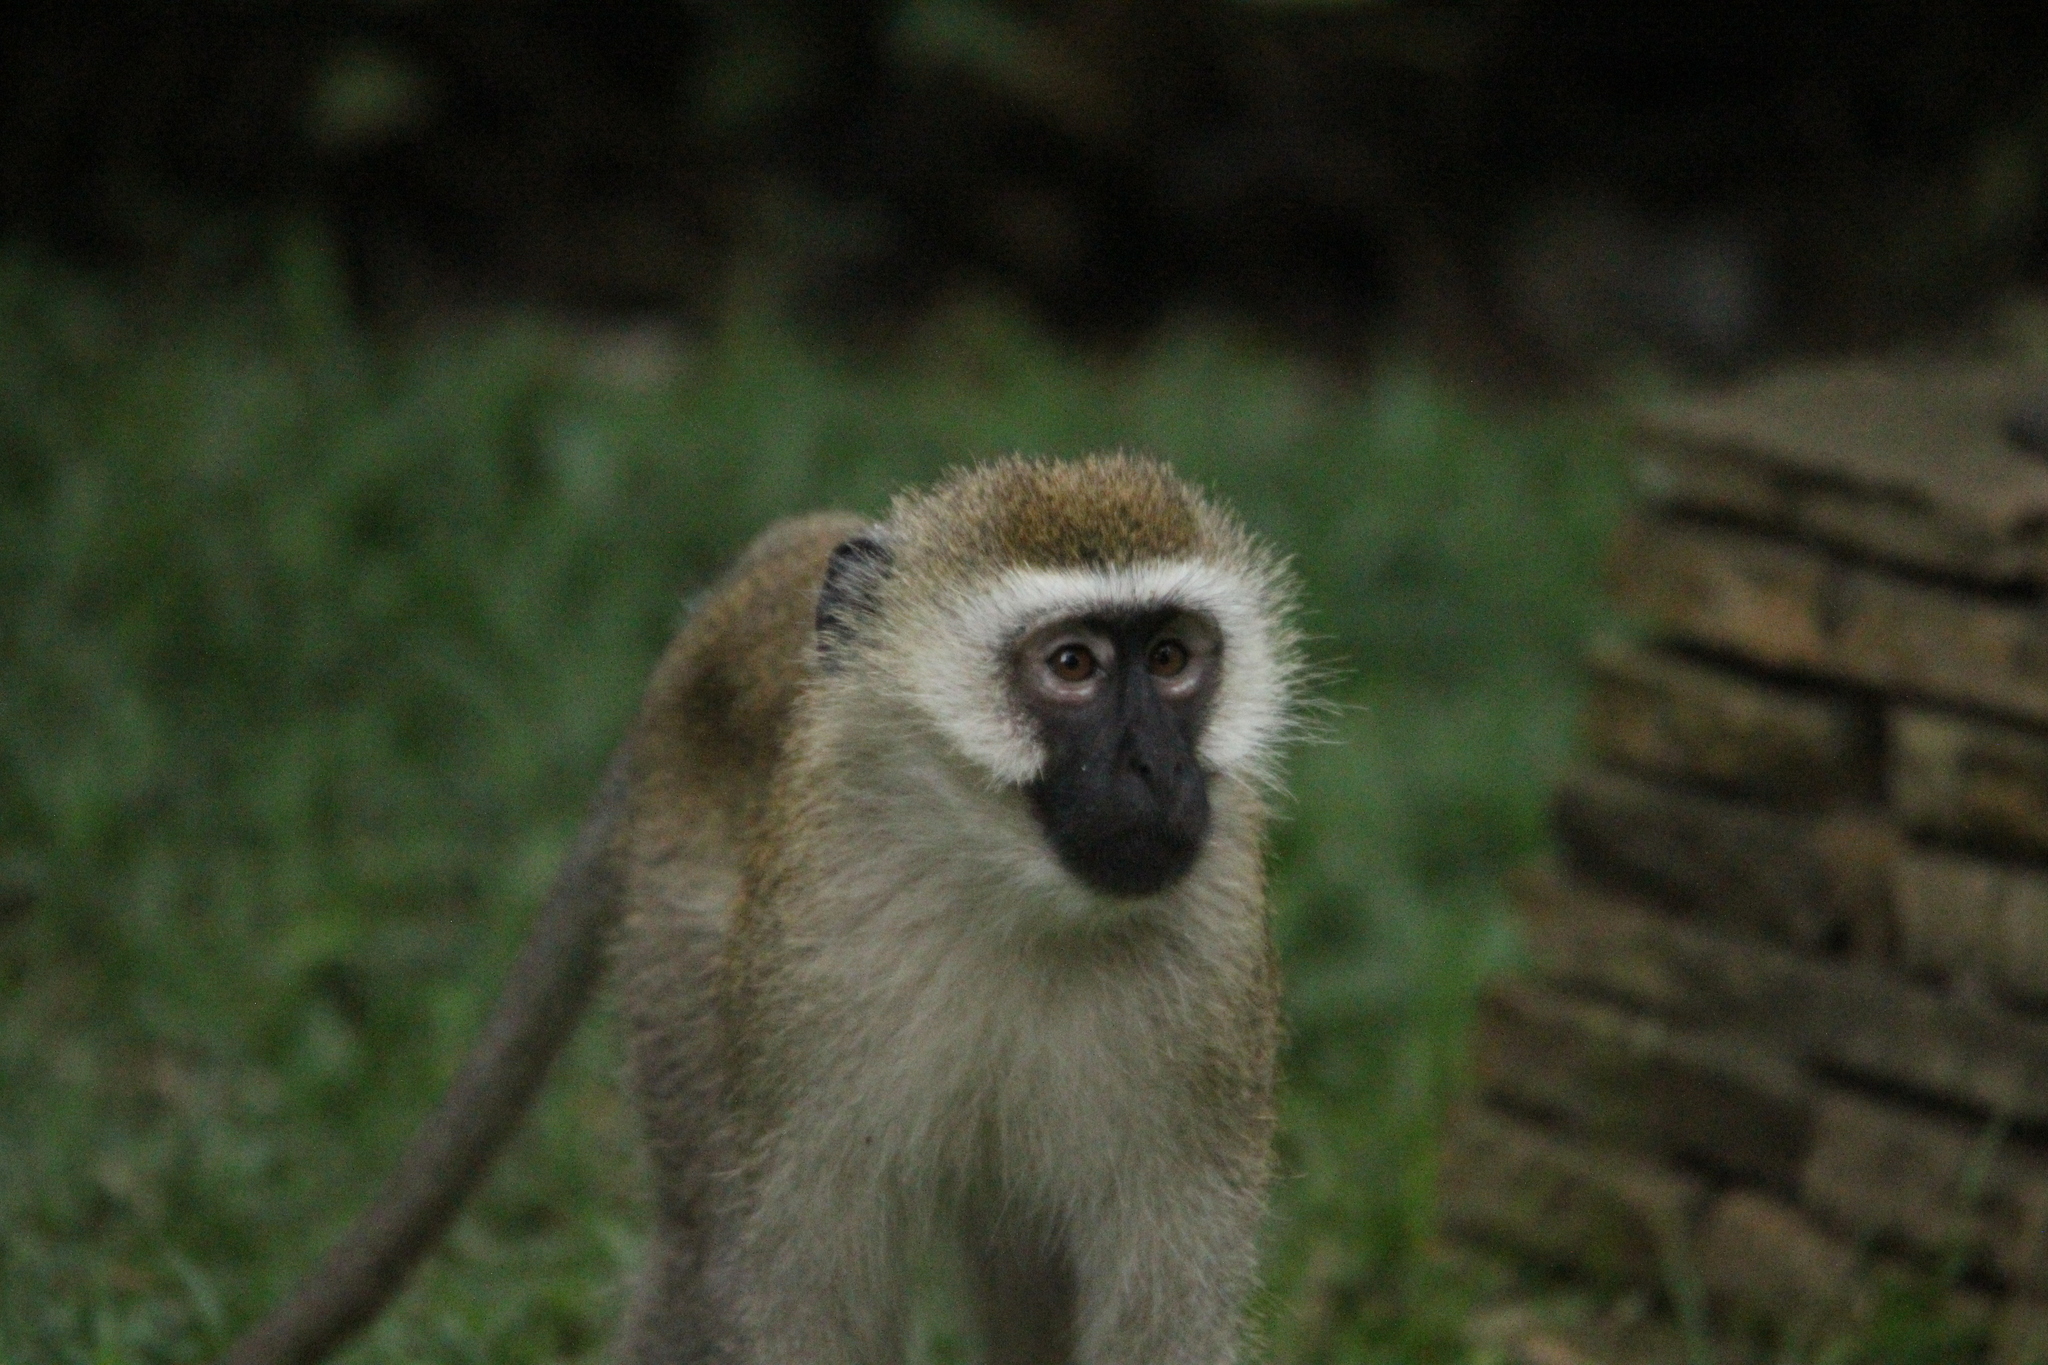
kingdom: Animalia
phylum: Chordata
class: Mammalia
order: Primates
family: Cercopithecidae
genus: Chlorocebus
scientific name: Chlorocebus pygerythrus
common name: Vervet monkey
